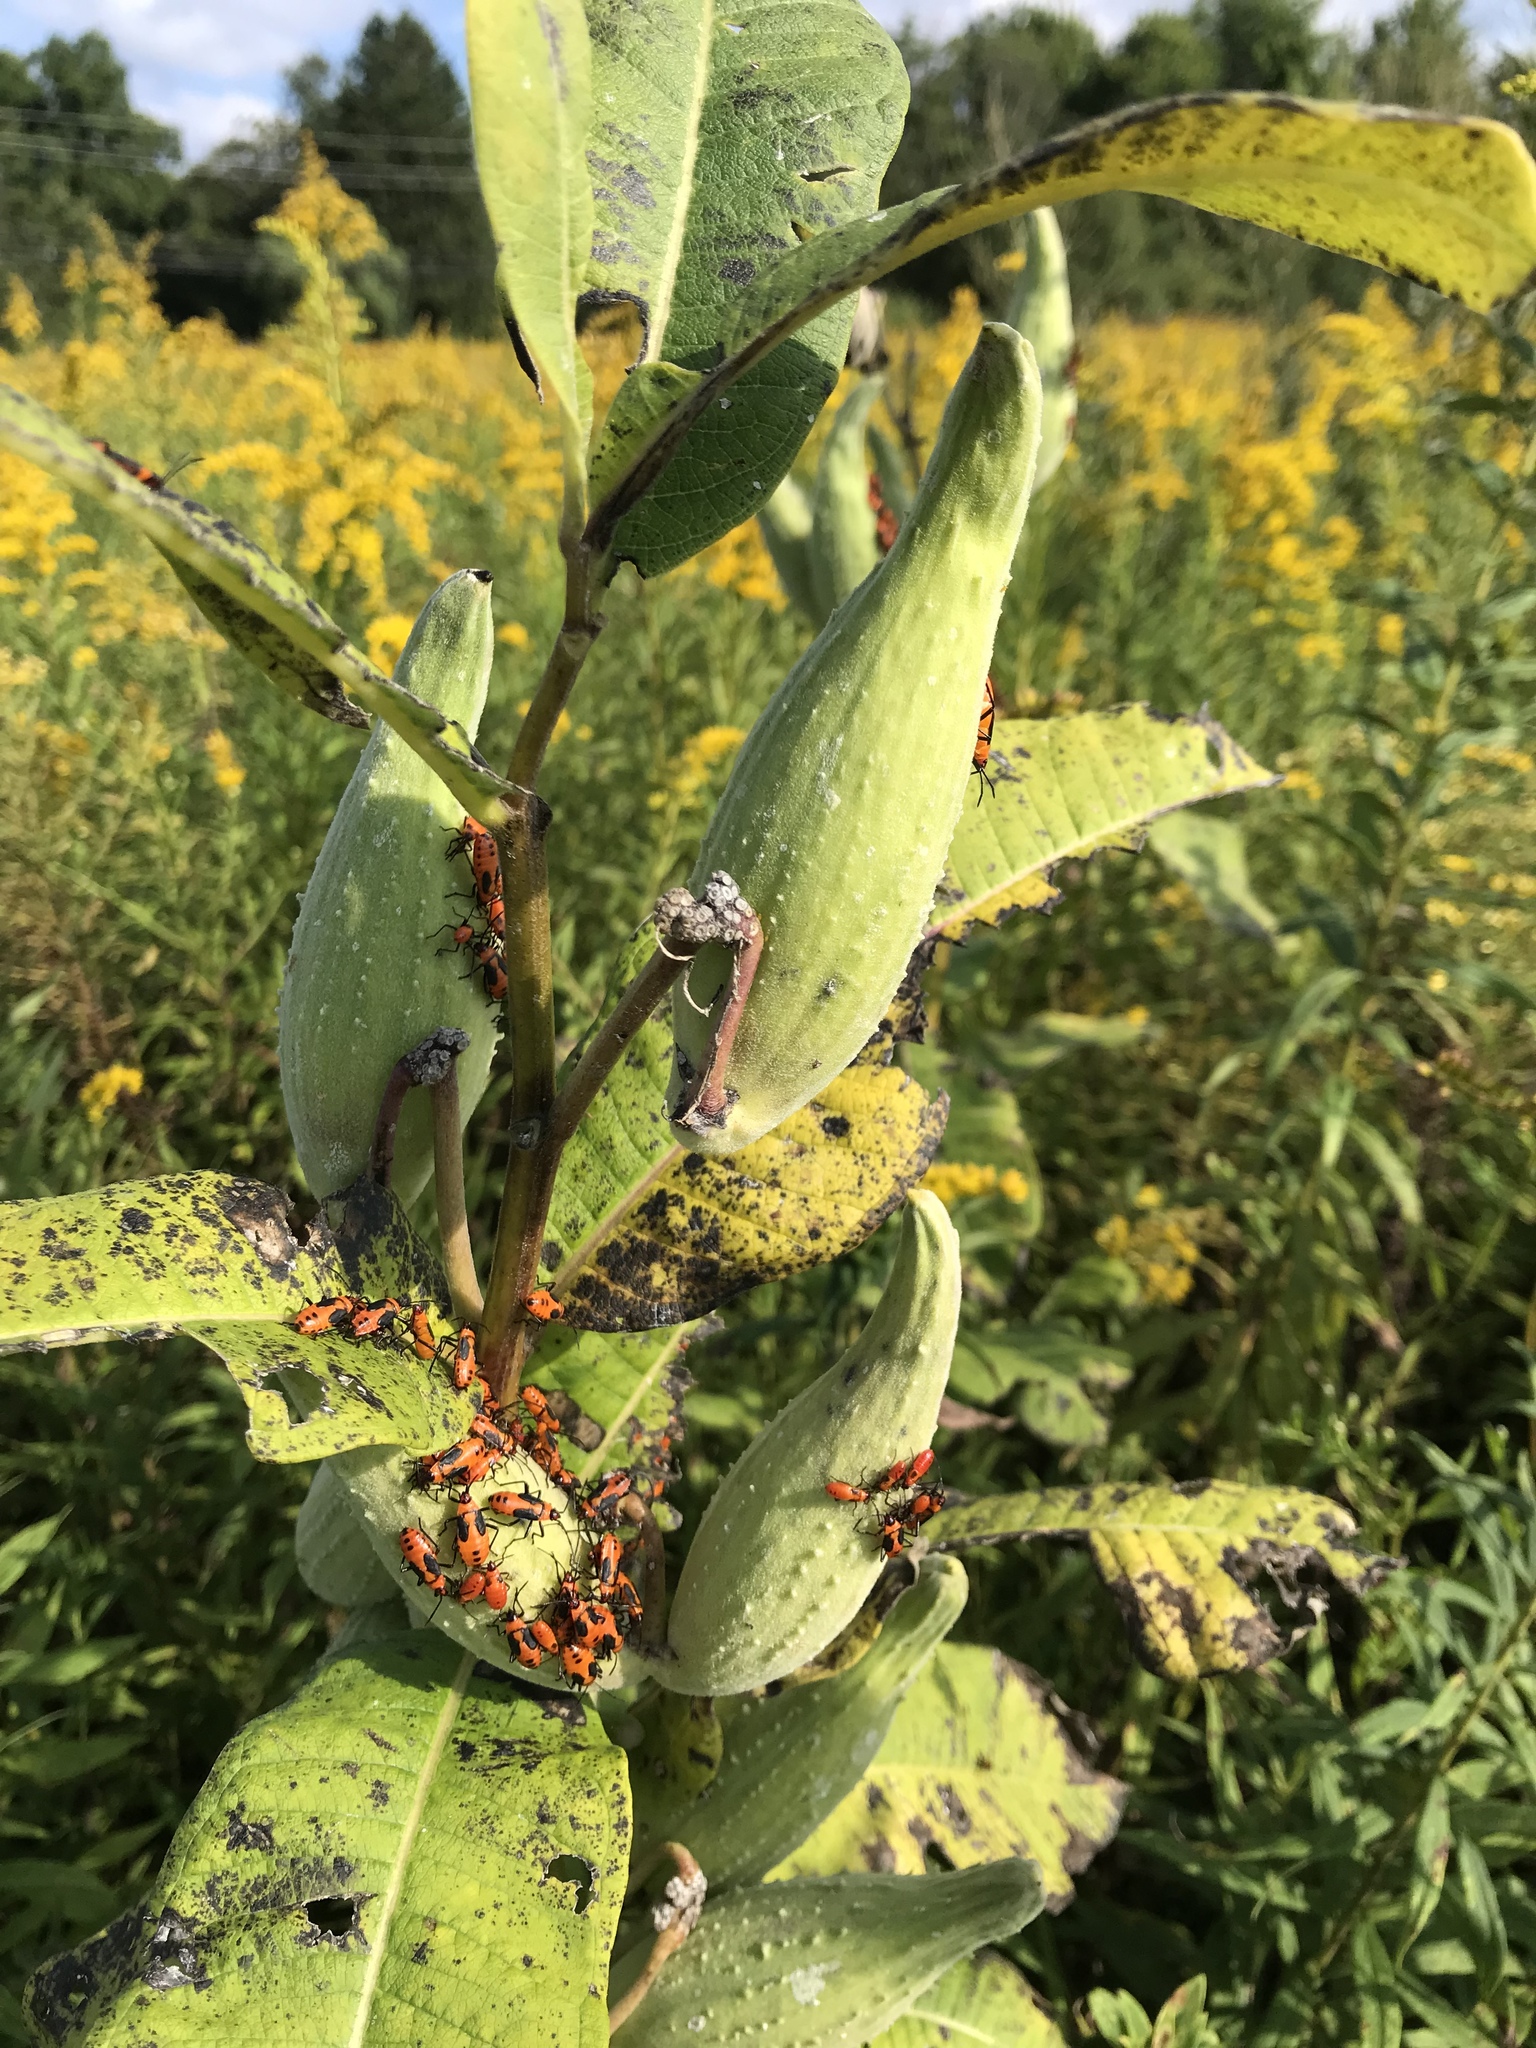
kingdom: Animalia
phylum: Arthropoda
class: Insecta
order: Hemiptera
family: Lygaeidae
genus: Oncopeltus
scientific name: Oncopeltus fasciatus
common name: Large milkweed bug
